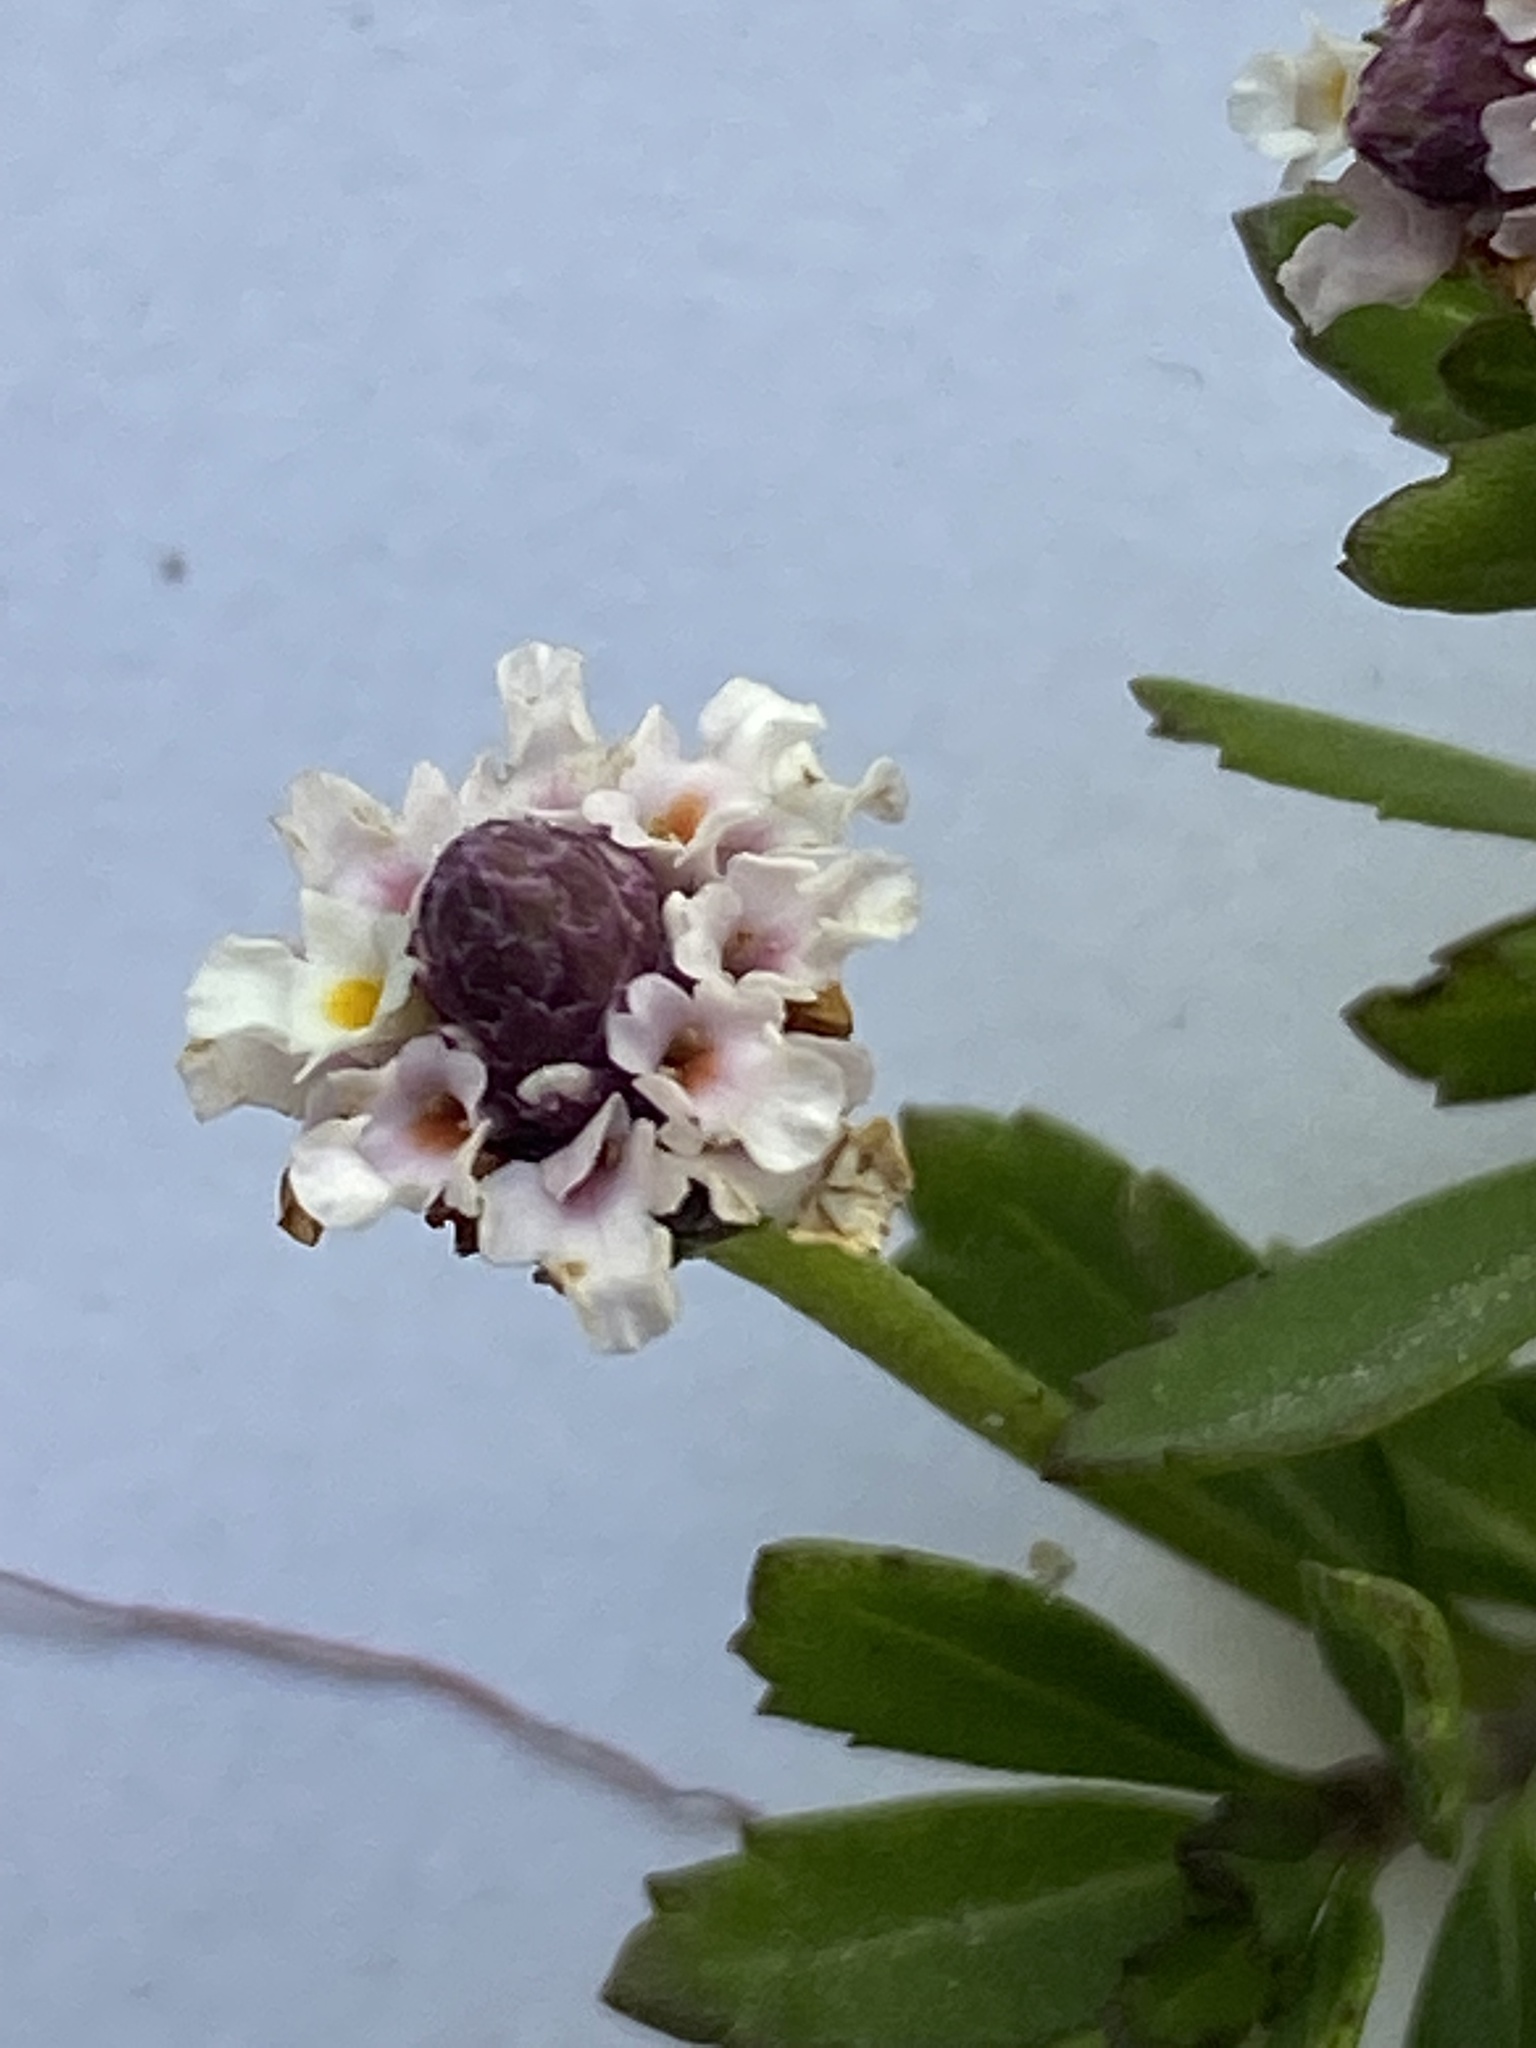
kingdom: Plantae
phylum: Tracheophyta
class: Magnoliopsida
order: Lamiales
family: Verbenaceae
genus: Phyla
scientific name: Phyla nodiflora
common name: Frogfruit
